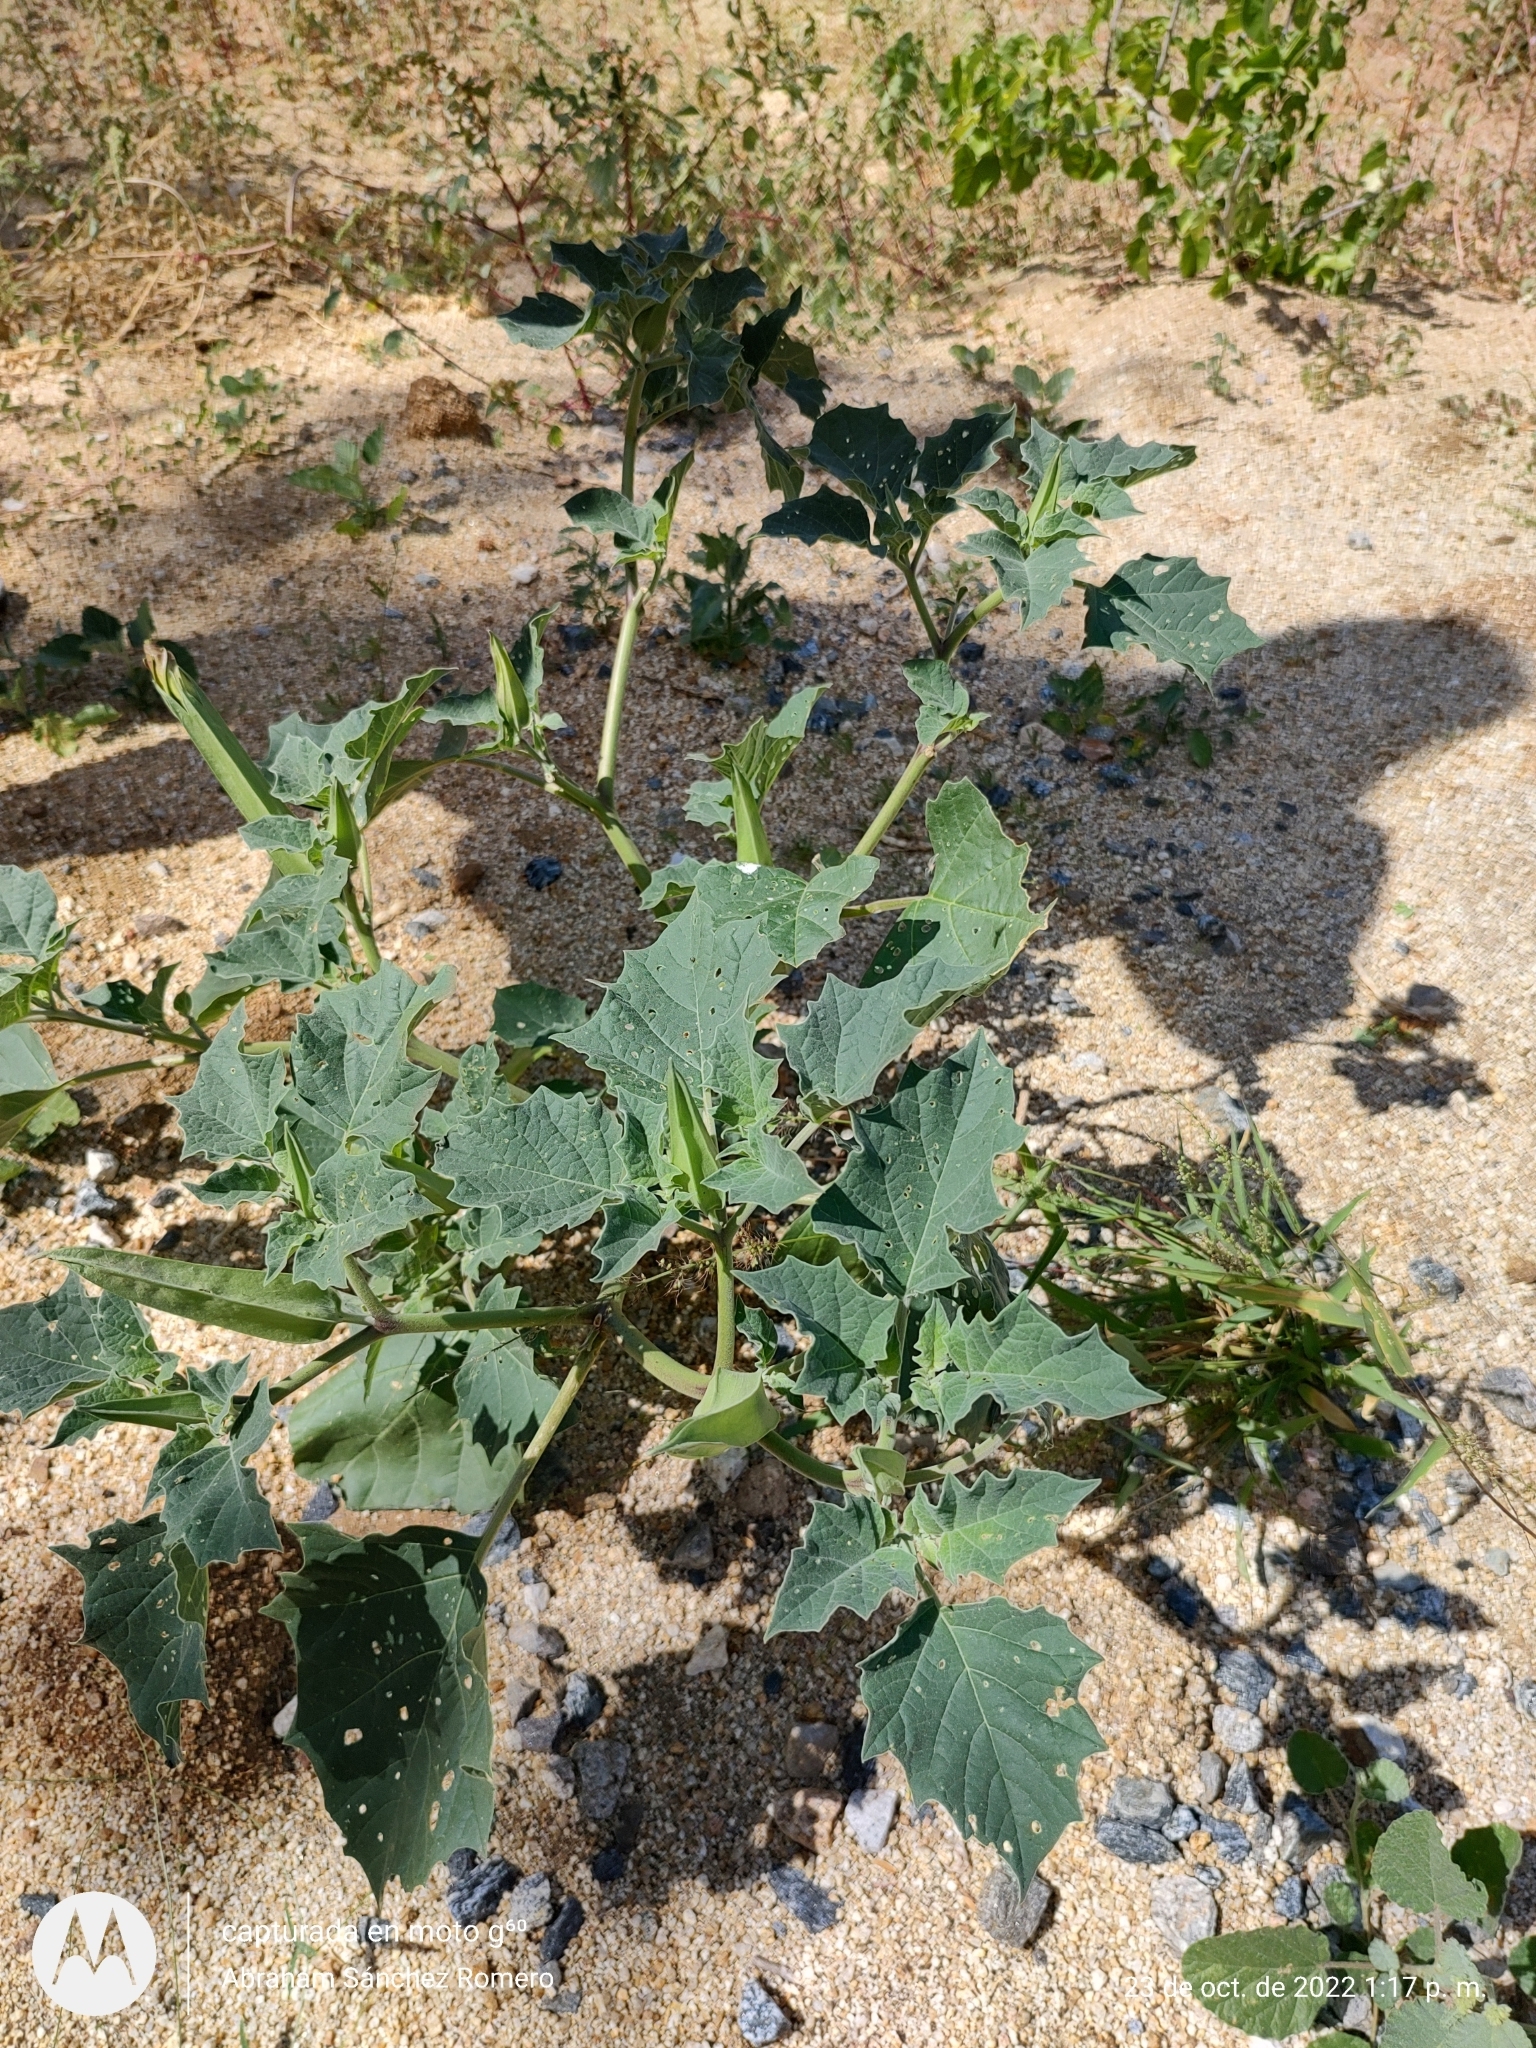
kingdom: Plantae
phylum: Tracheophyta
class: Magnoliopsida
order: Solanales
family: Solanaceae
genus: Datura
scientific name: Datura discolor
